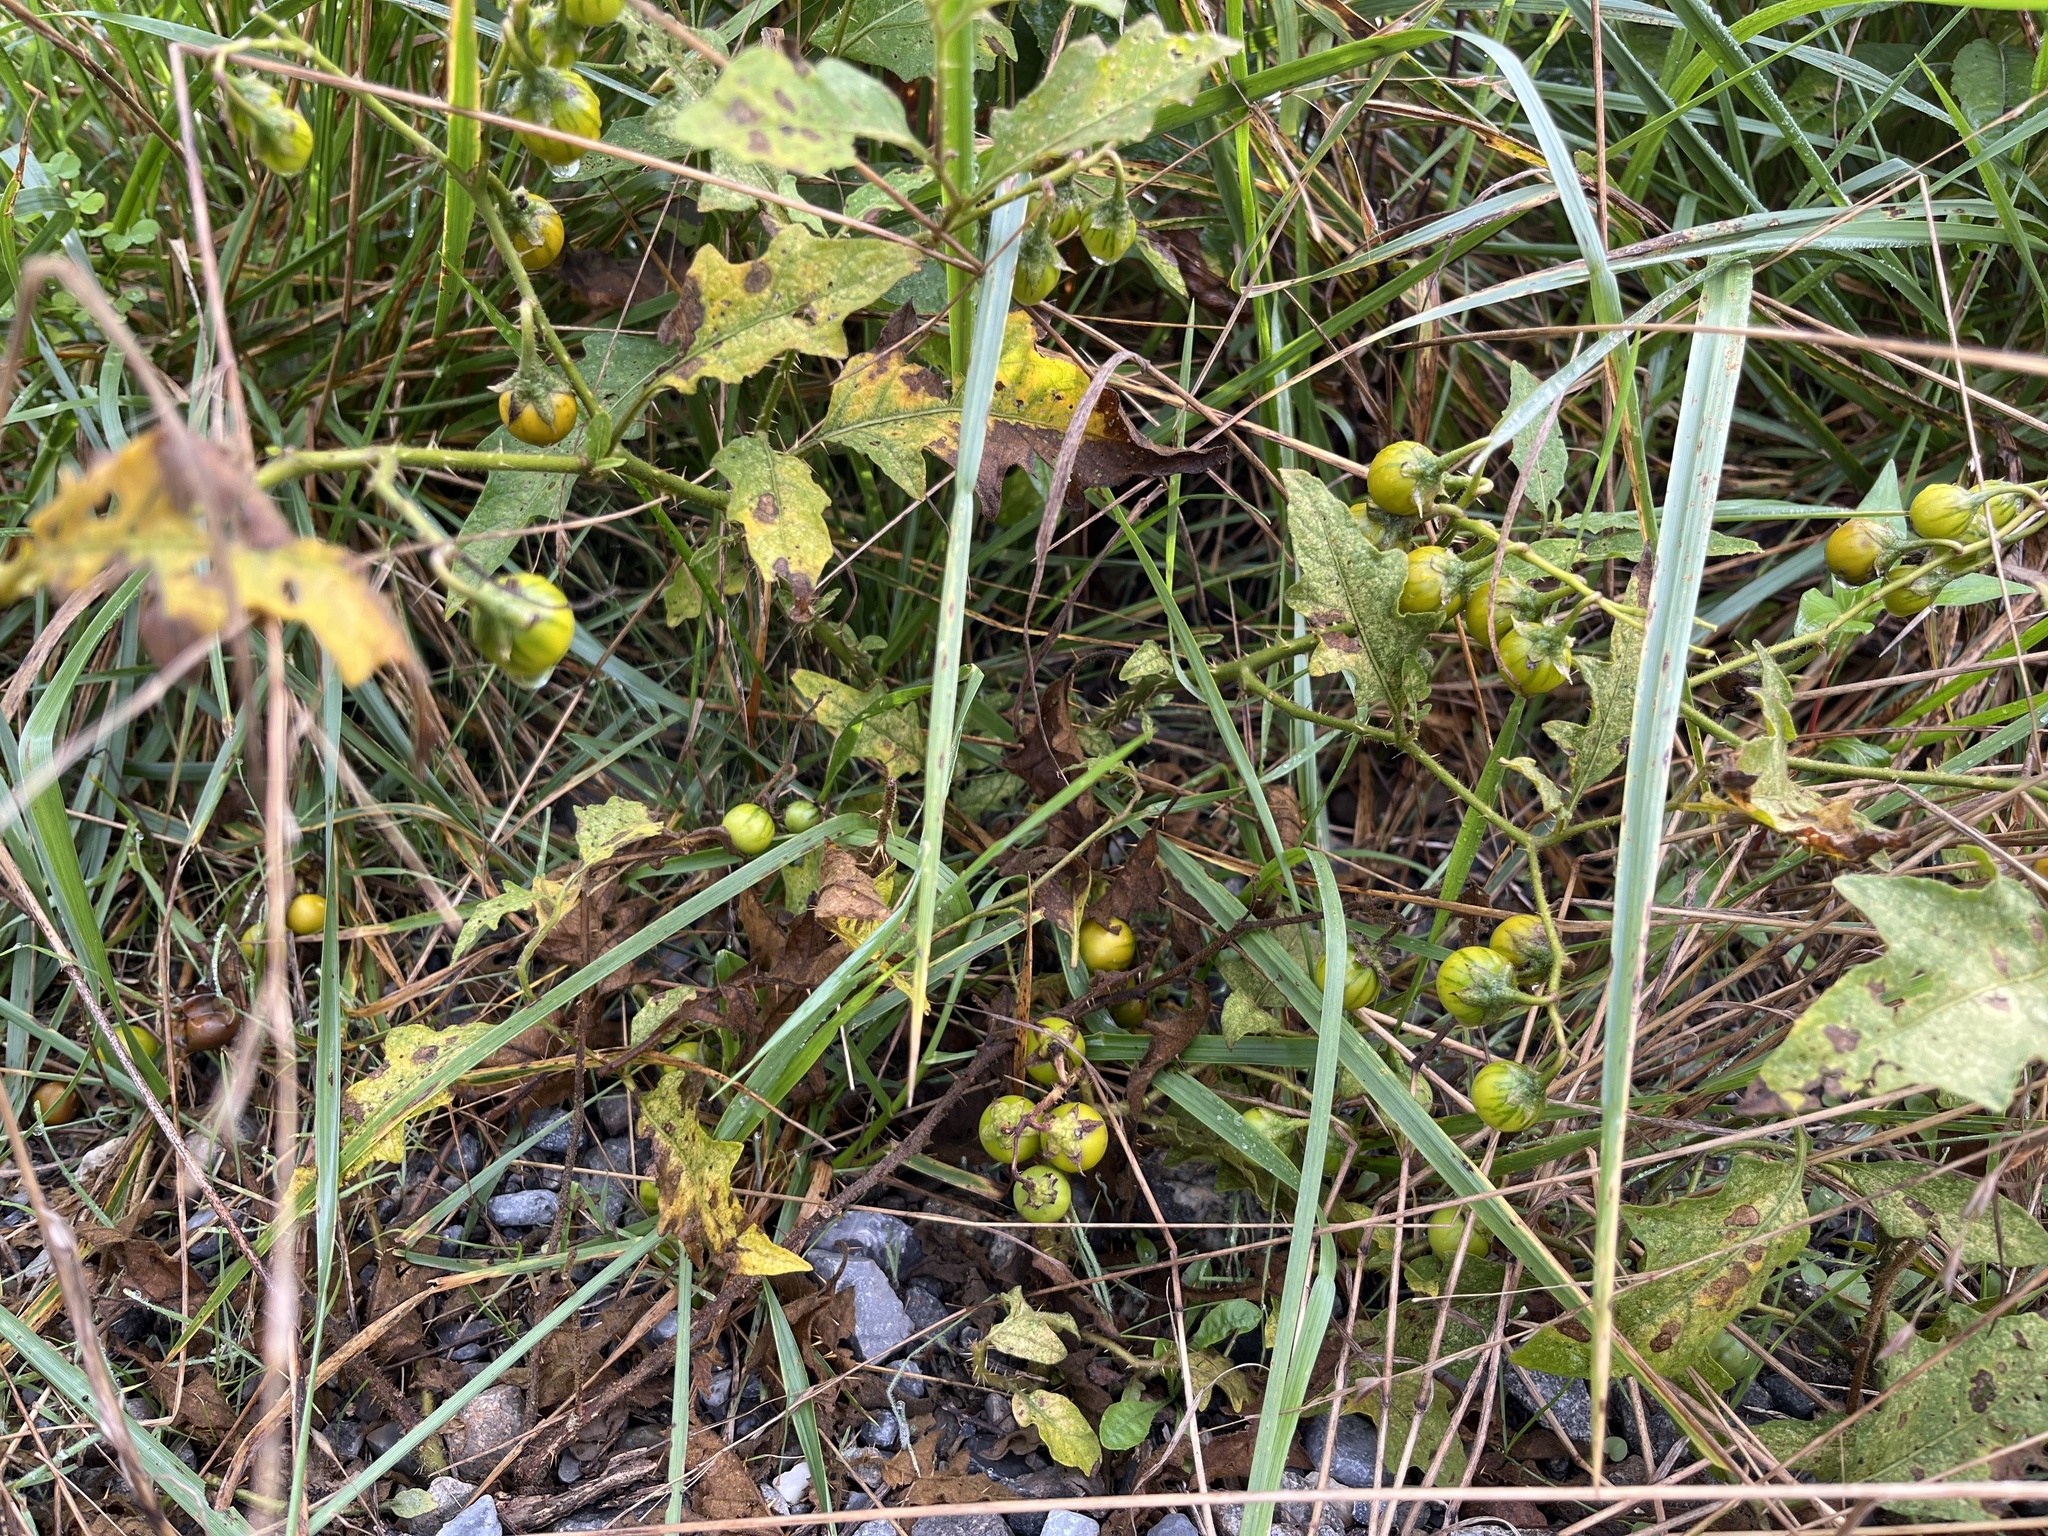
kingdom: Plantae
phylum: Tracheophyta
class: Magnoliopsida
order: Solanales
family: Solanaceae
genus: Solanum
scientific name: Solanum carolinense
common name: Horse-nettle
